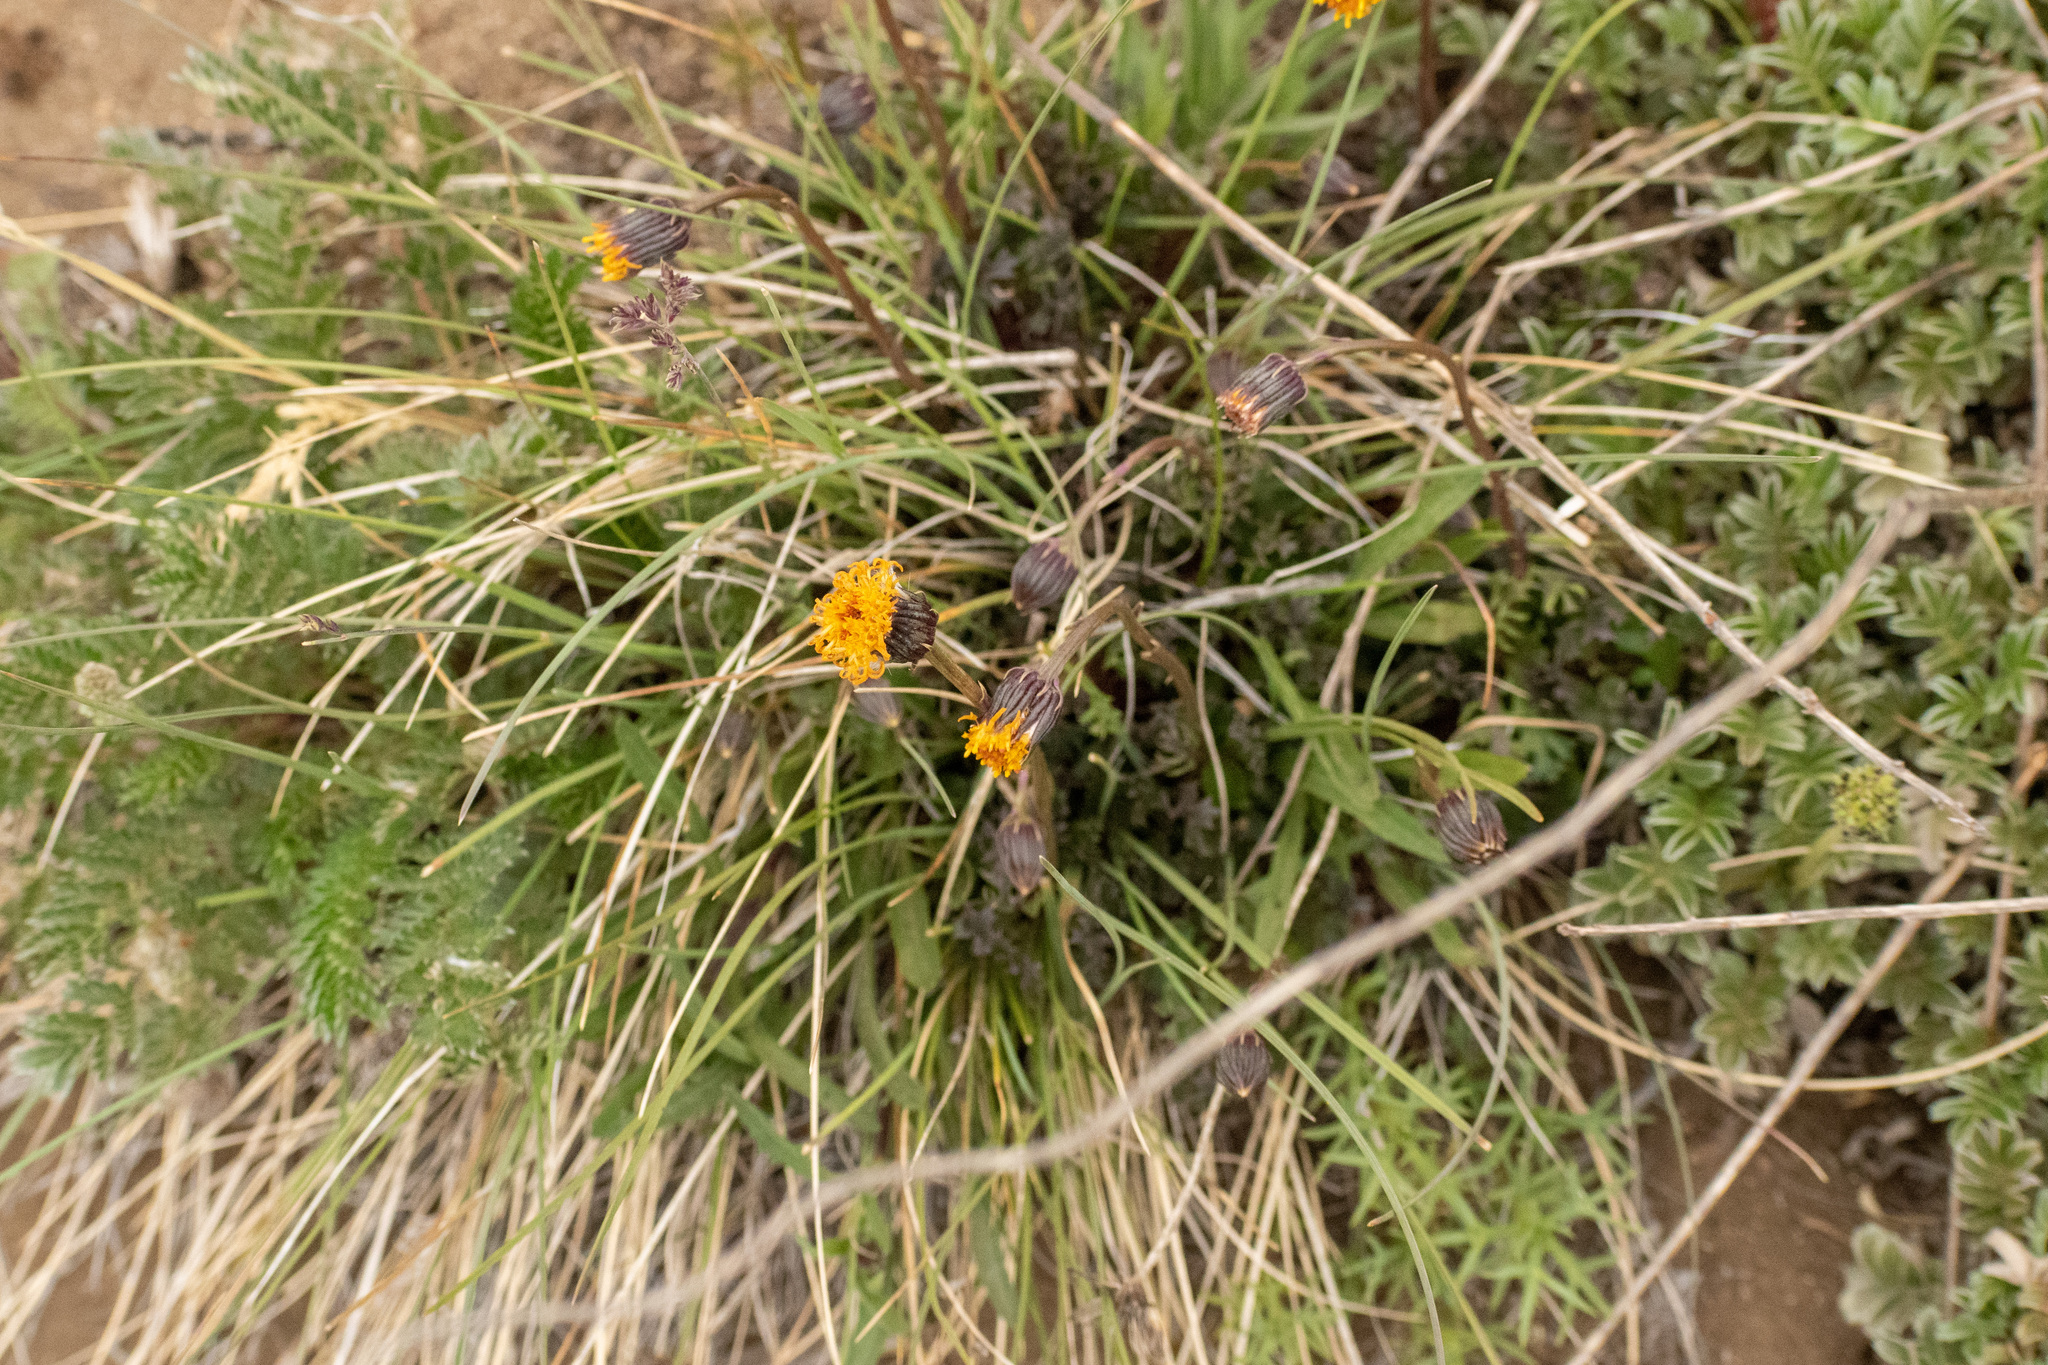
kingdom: Plantae
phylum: Tracheophyta
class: Magnoliopsida
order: Asterales
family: Asteraceae
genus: Senecio
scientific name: Senecio kingii
